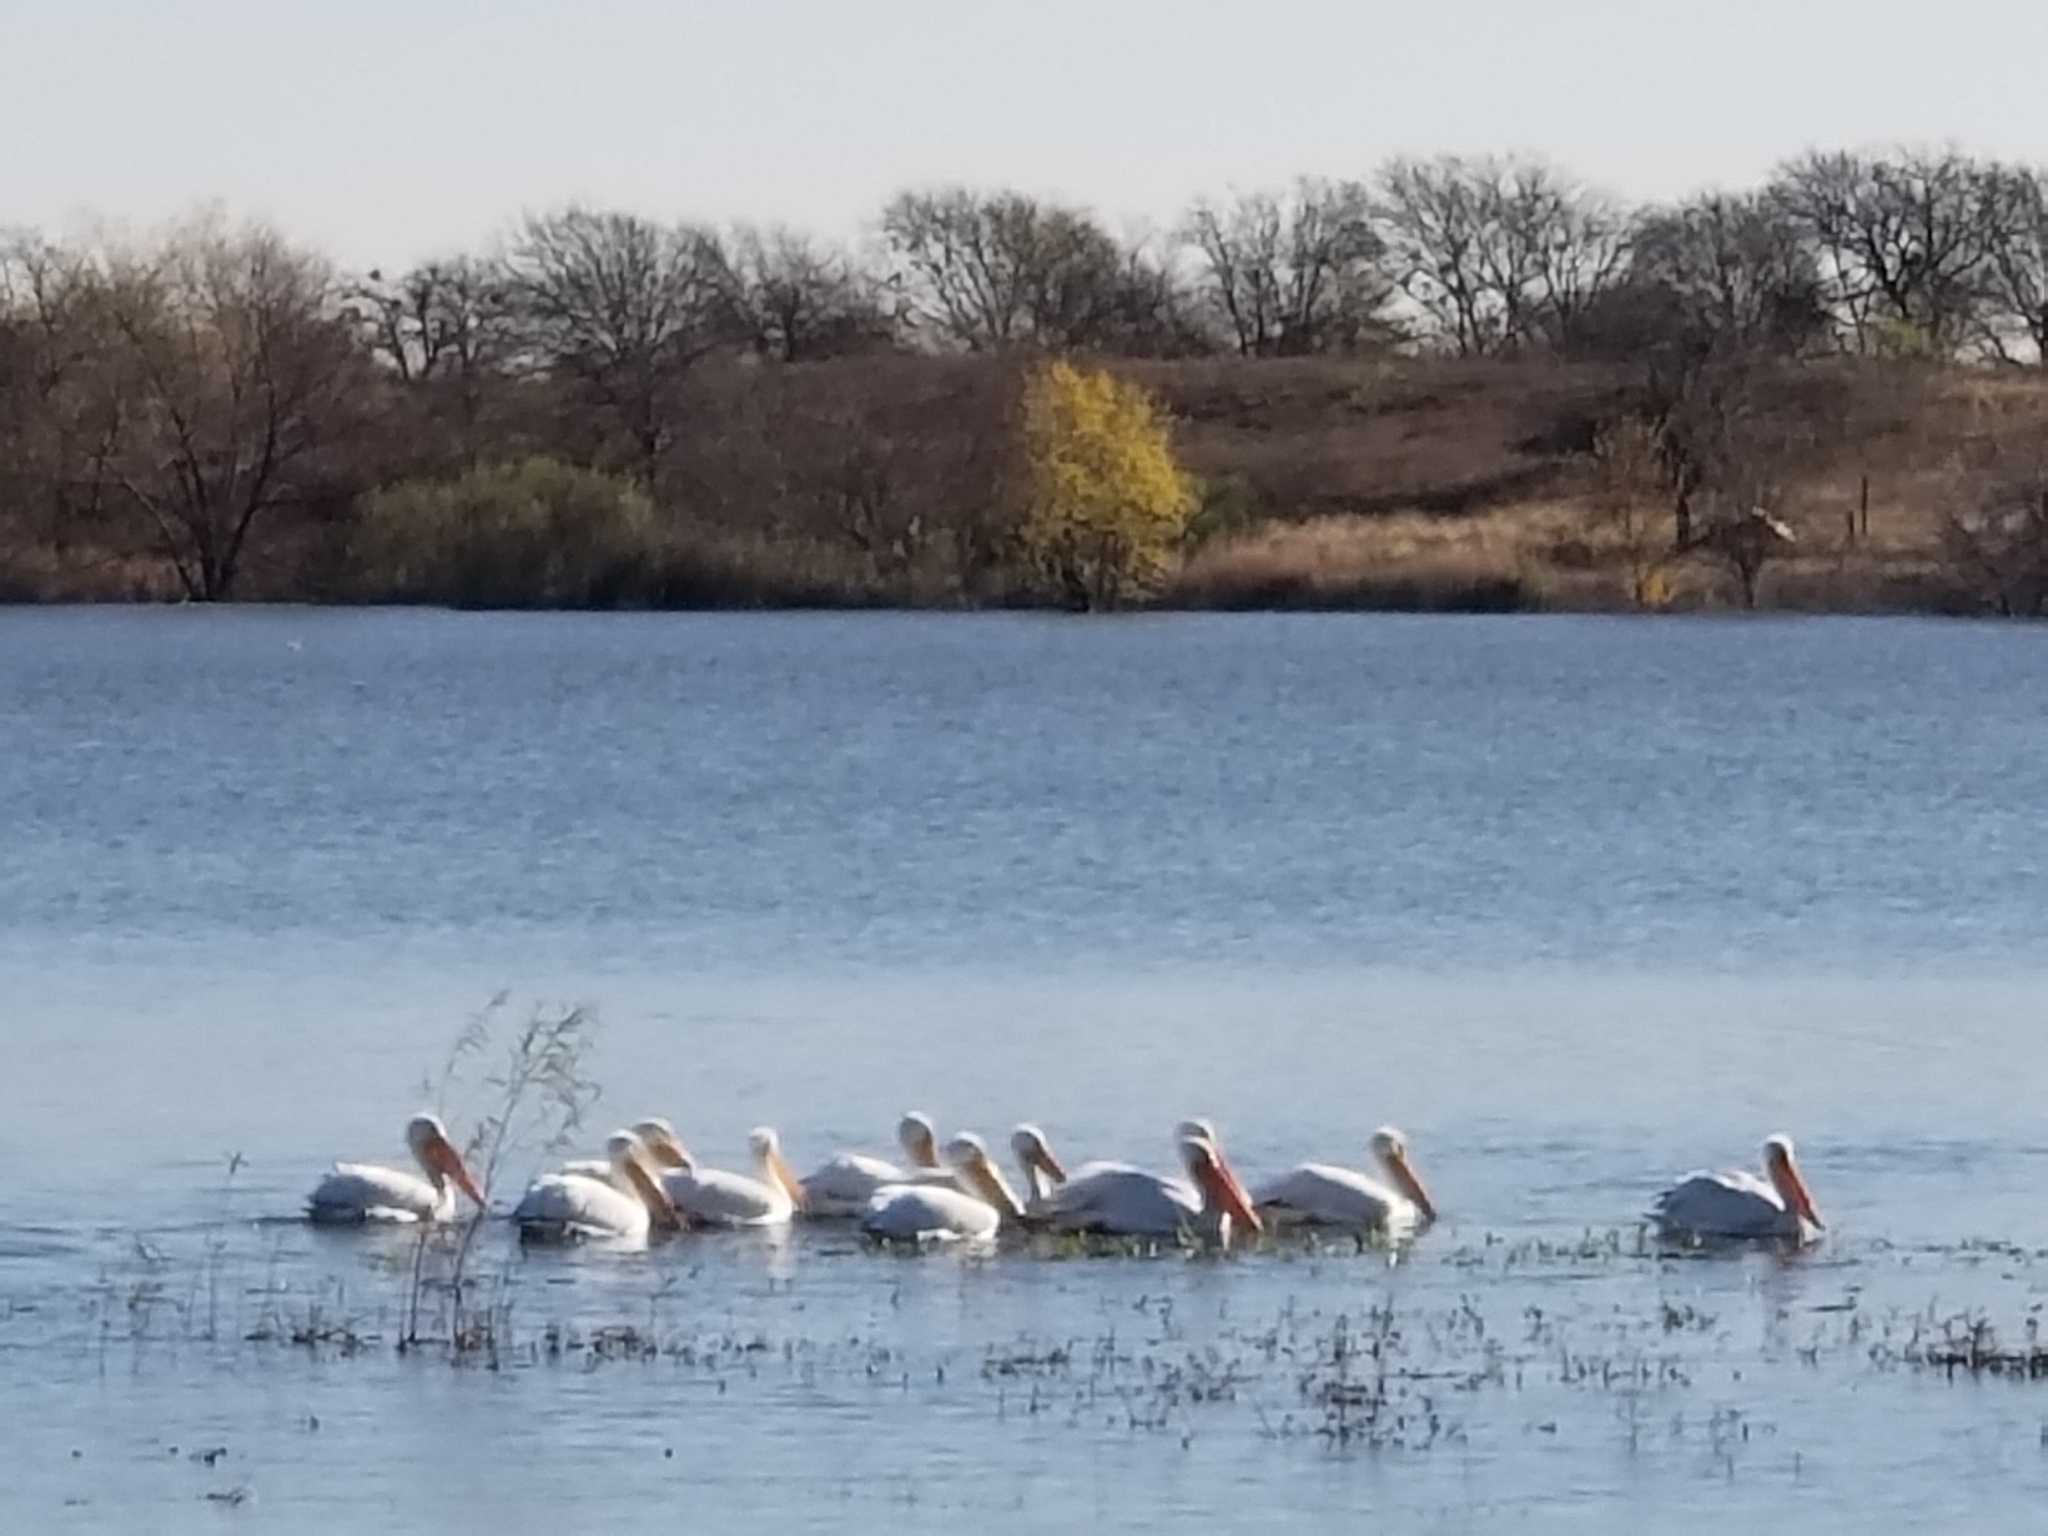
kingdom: Animalia
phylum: Chordata
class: Aves
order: Pelecaniformes
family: Pelecanidae
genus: Pelecanus
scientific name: Pelecanus erythrorhynchos
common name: American white pelican
